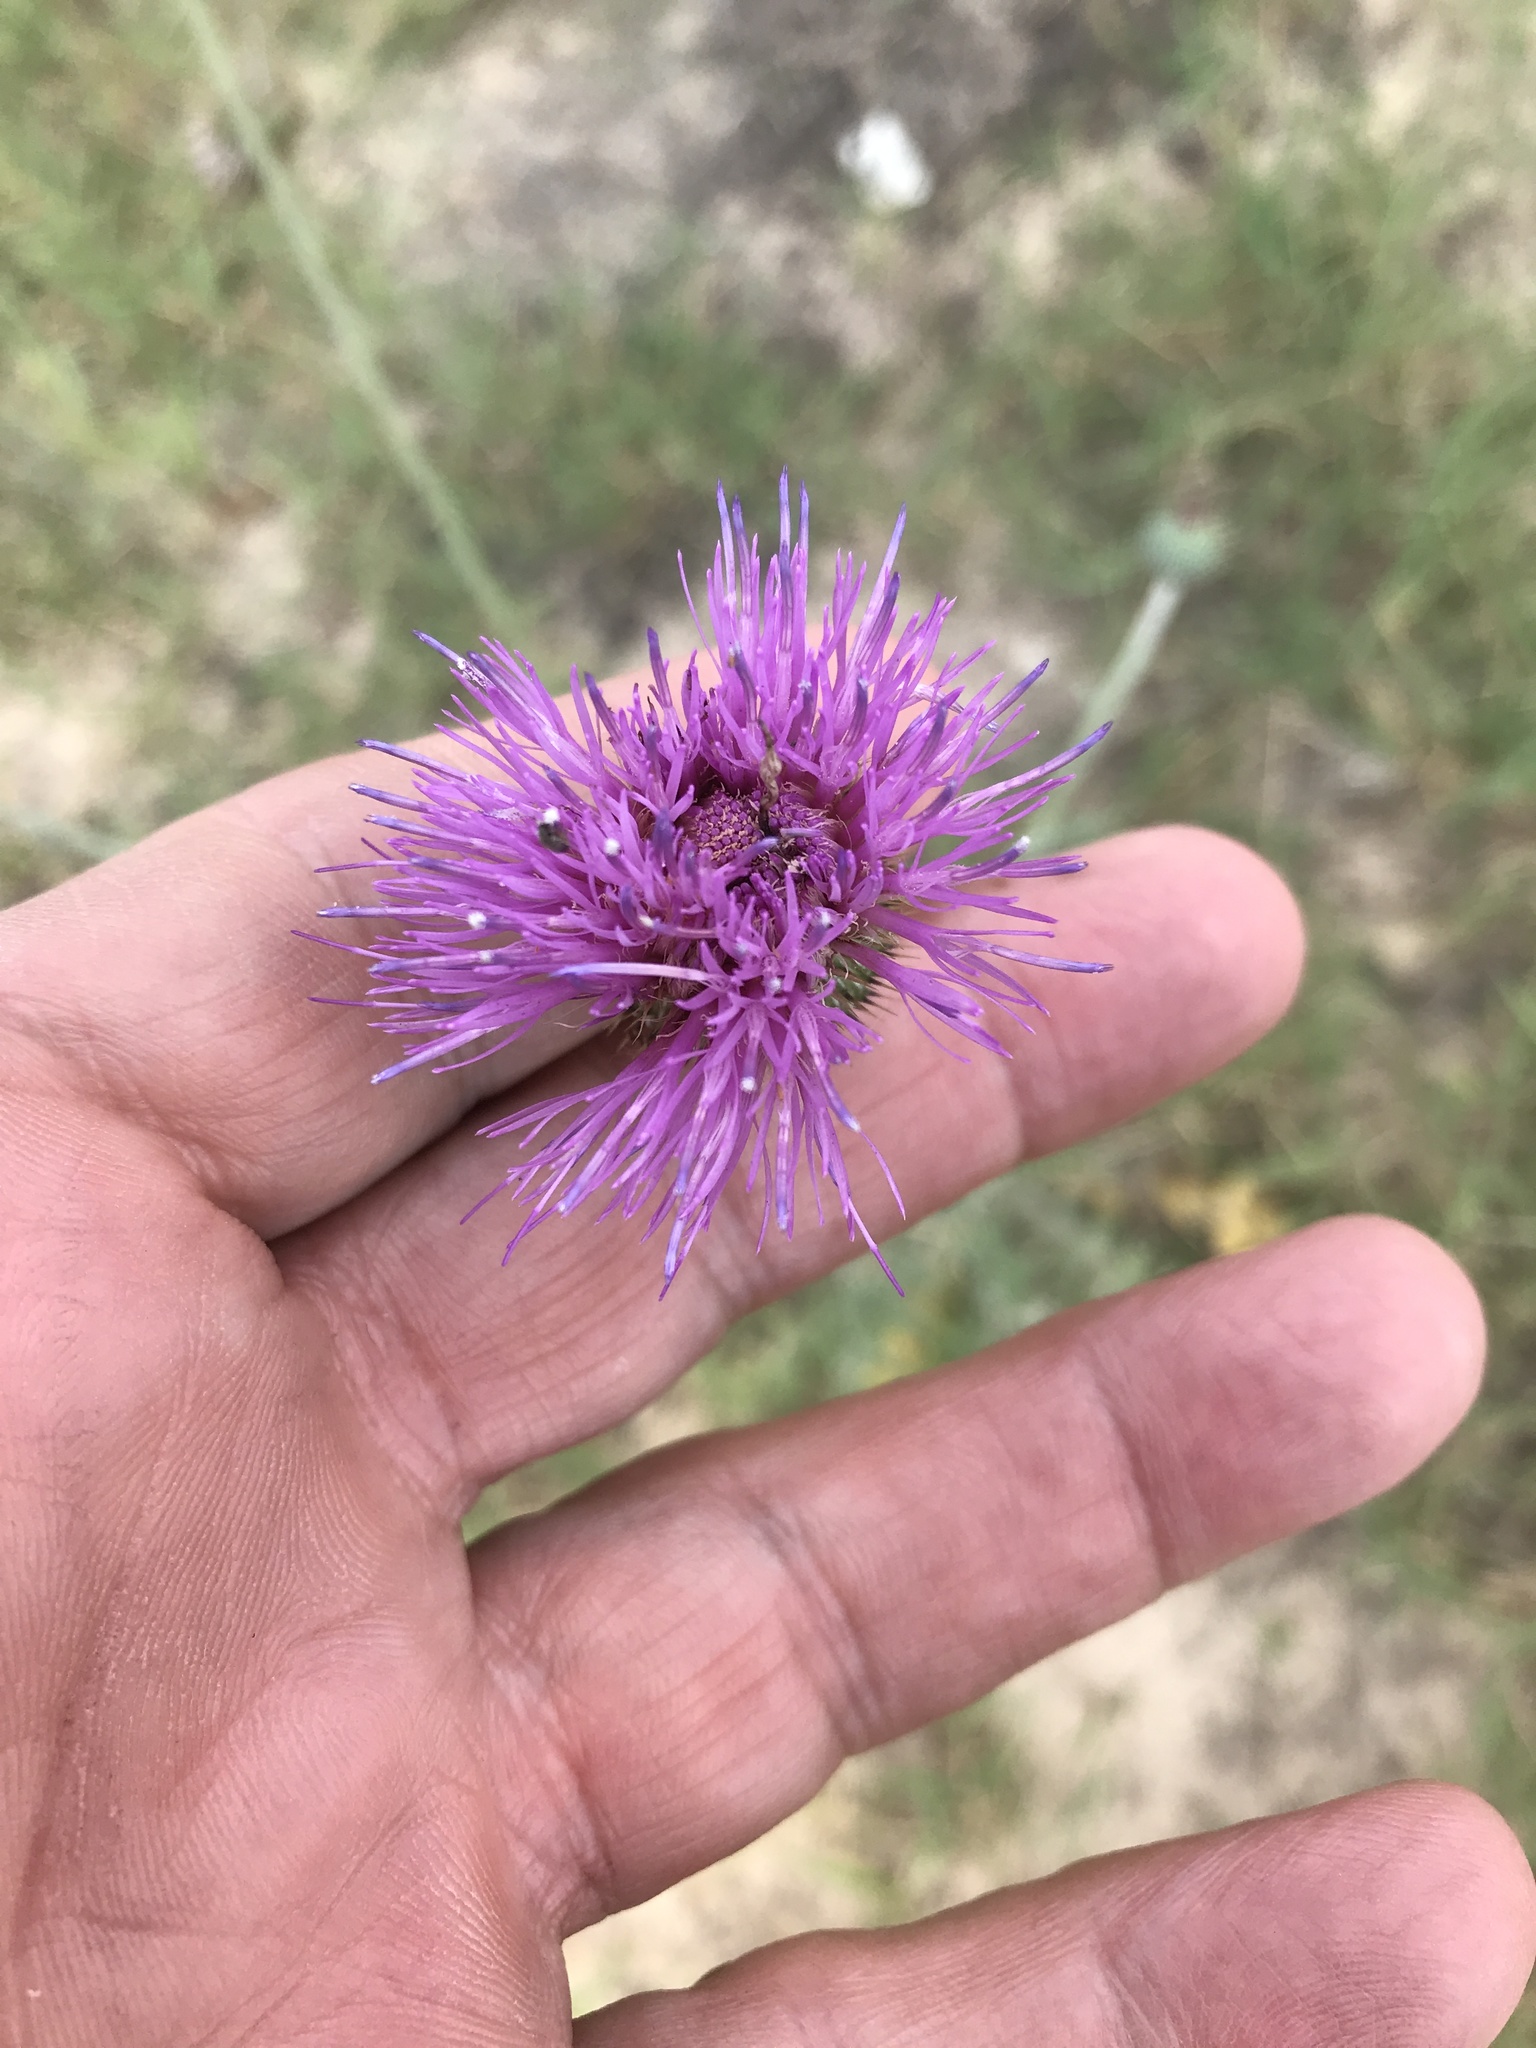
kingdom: Plantae
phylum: Tracheophyta
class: Magnoliopsida
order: Asterales
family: Asteraceae
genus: Cirsium
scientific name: Cirsium texanum
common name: Texas purple thistle
